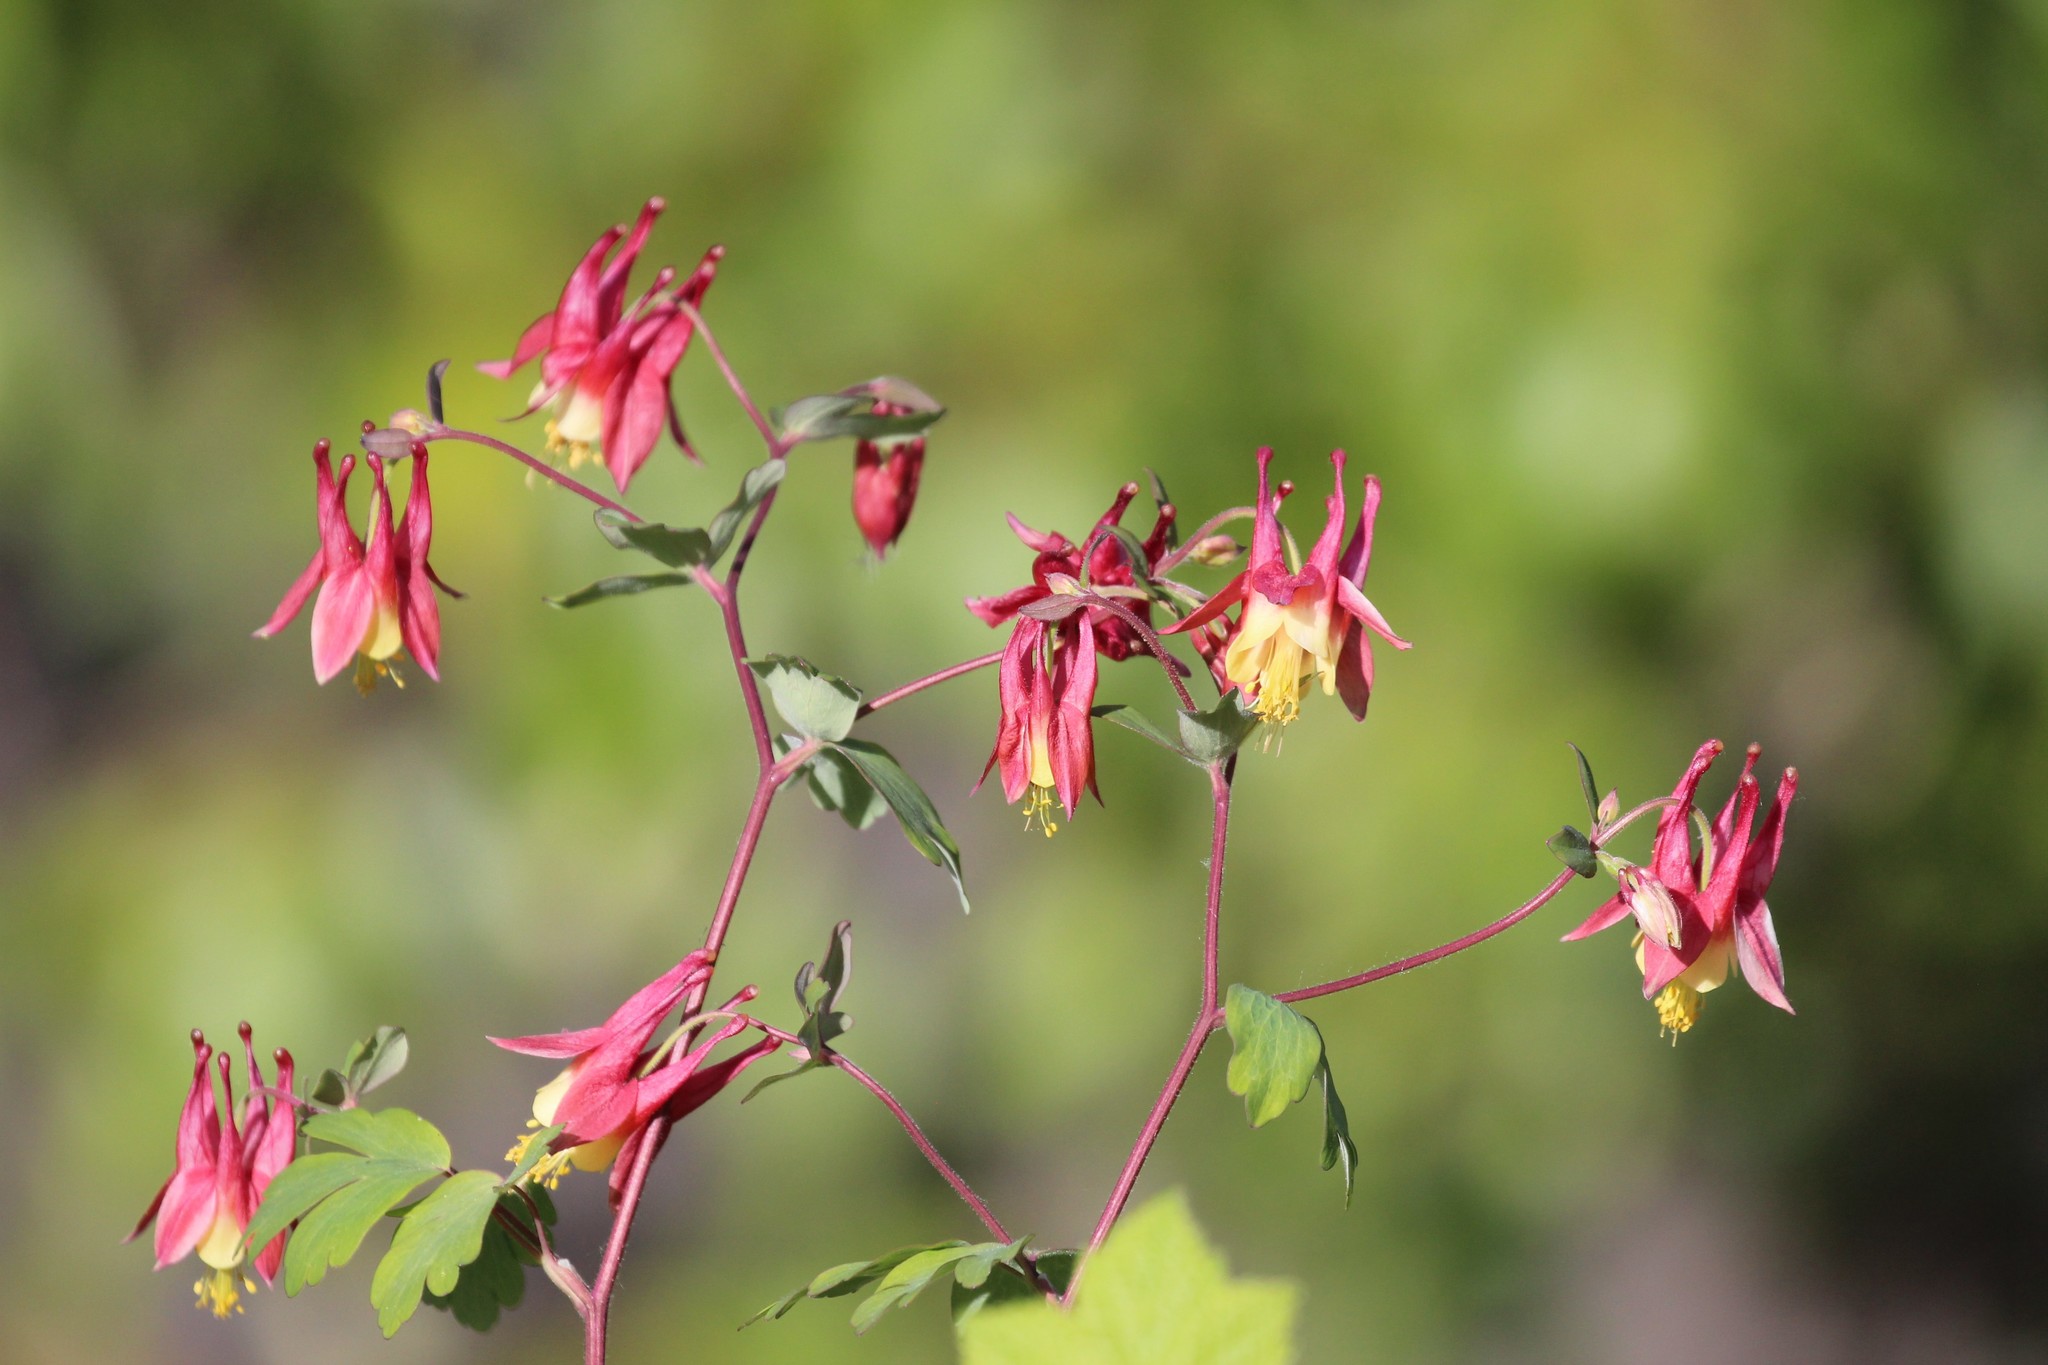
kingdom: Plantae
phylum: Tracheophyta
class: Magnoliopsida
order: Ranunculales
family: Ranunculaceae
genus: Aquilegia
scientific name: Aquilegia canadensis
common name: American columbine
